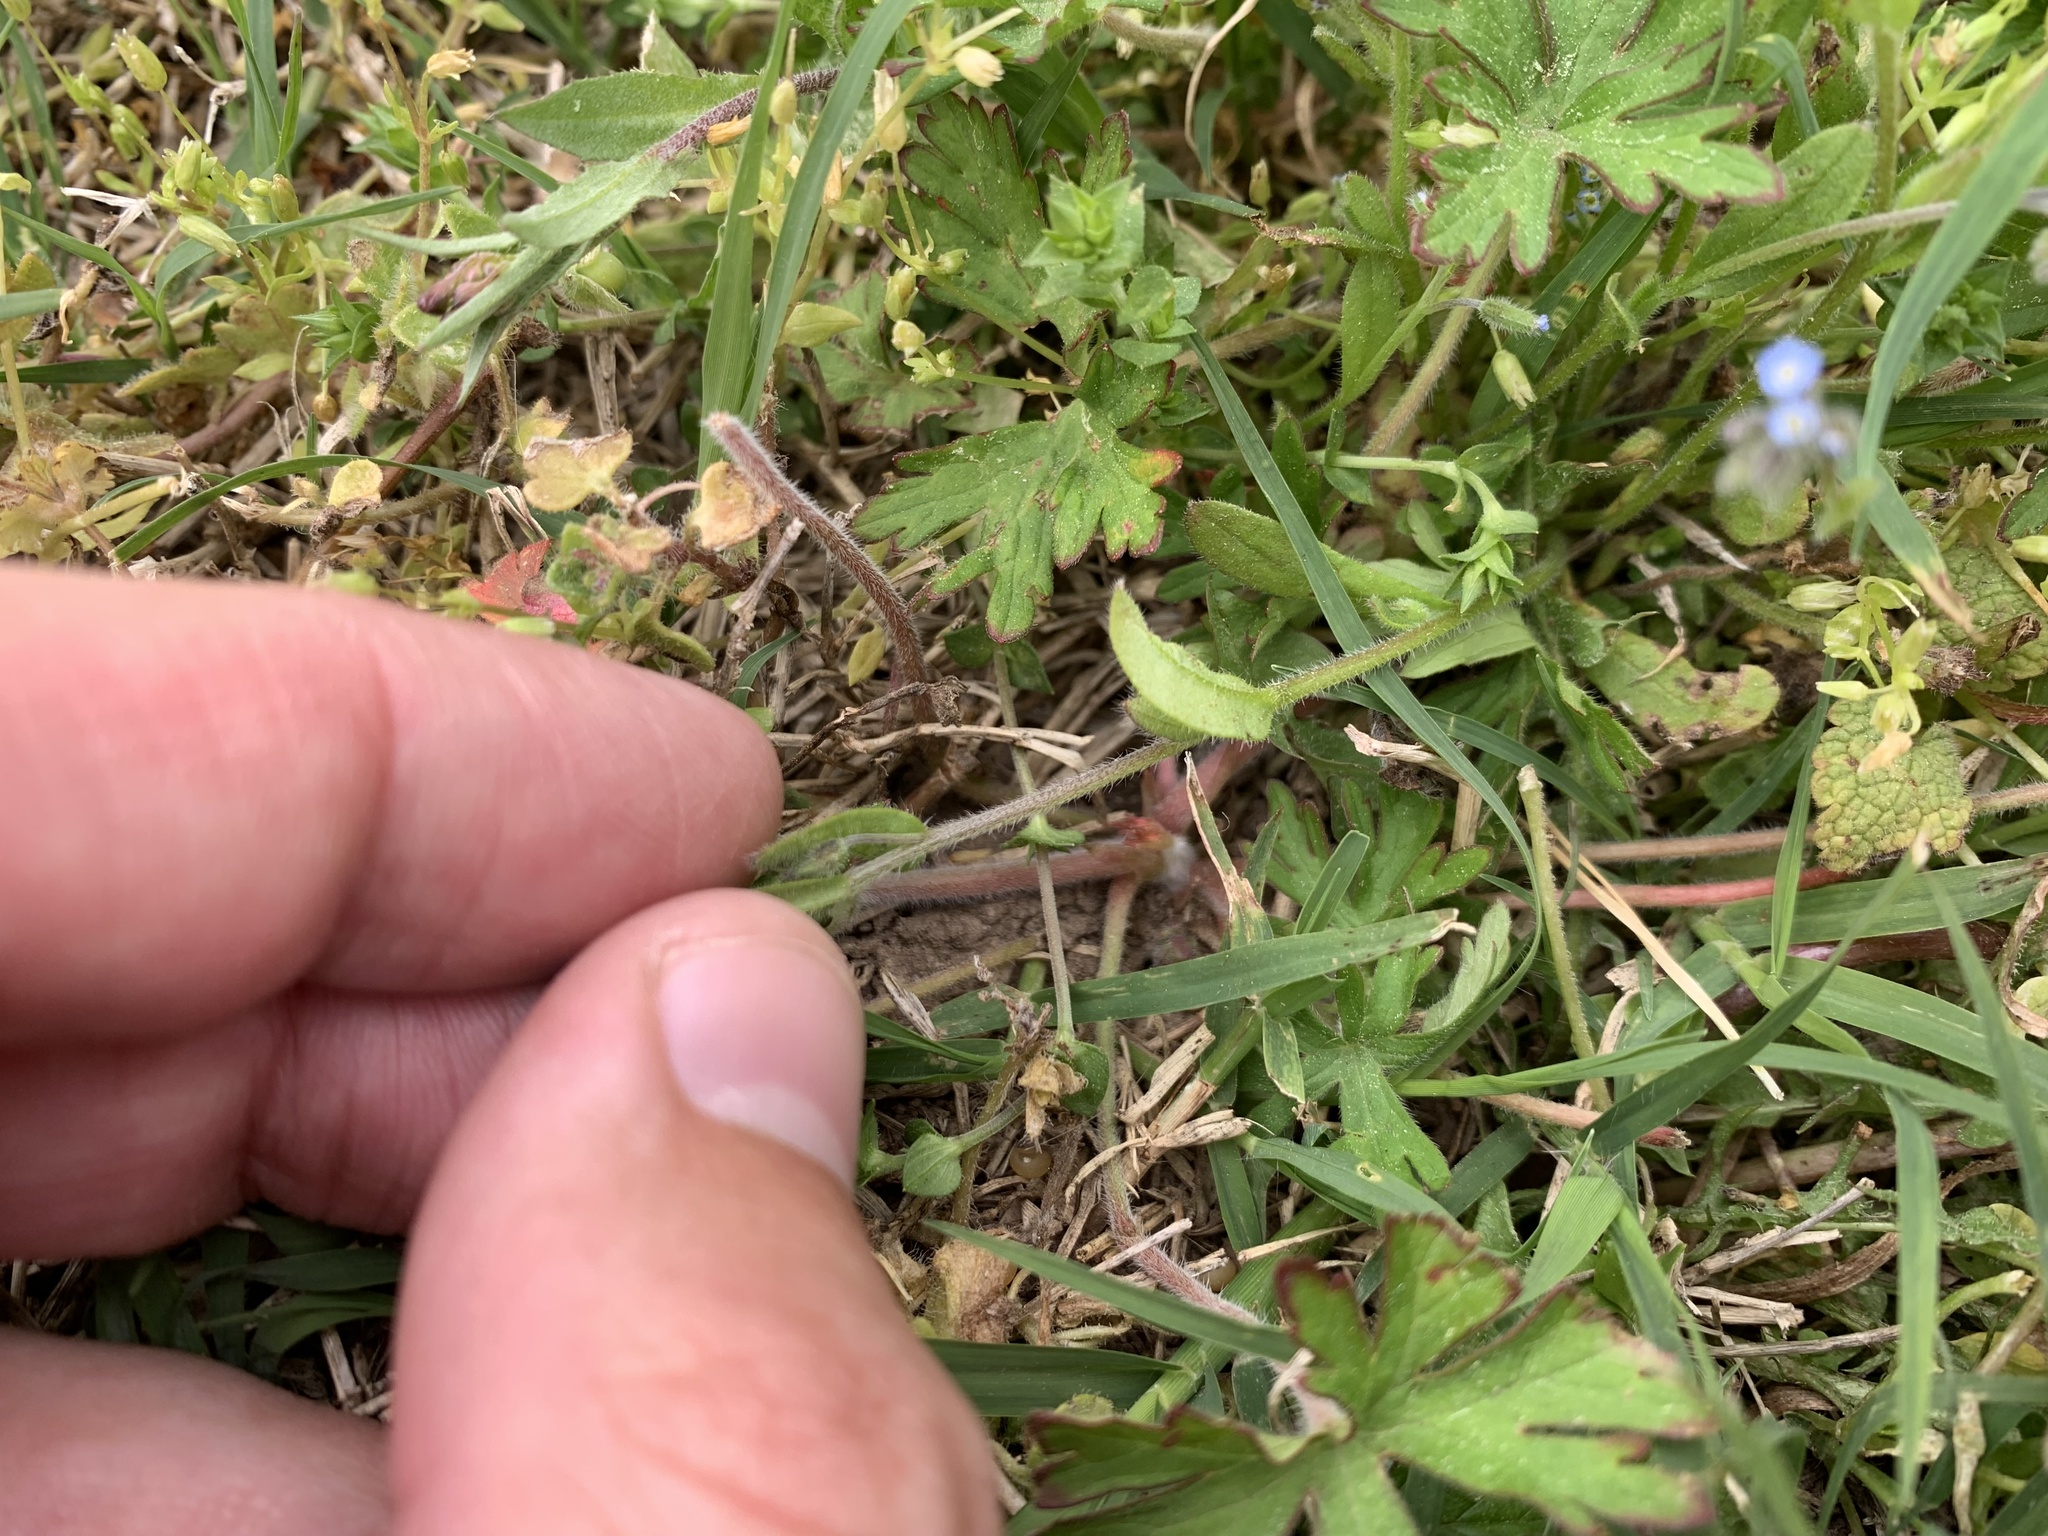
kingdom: Plantae
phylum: Tracheophyta
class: Magnoliopsida
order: Boraginales
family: Boraginaceae
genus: Myosotis
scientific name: Myosotis ramosissima
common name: Early forget-me-not
